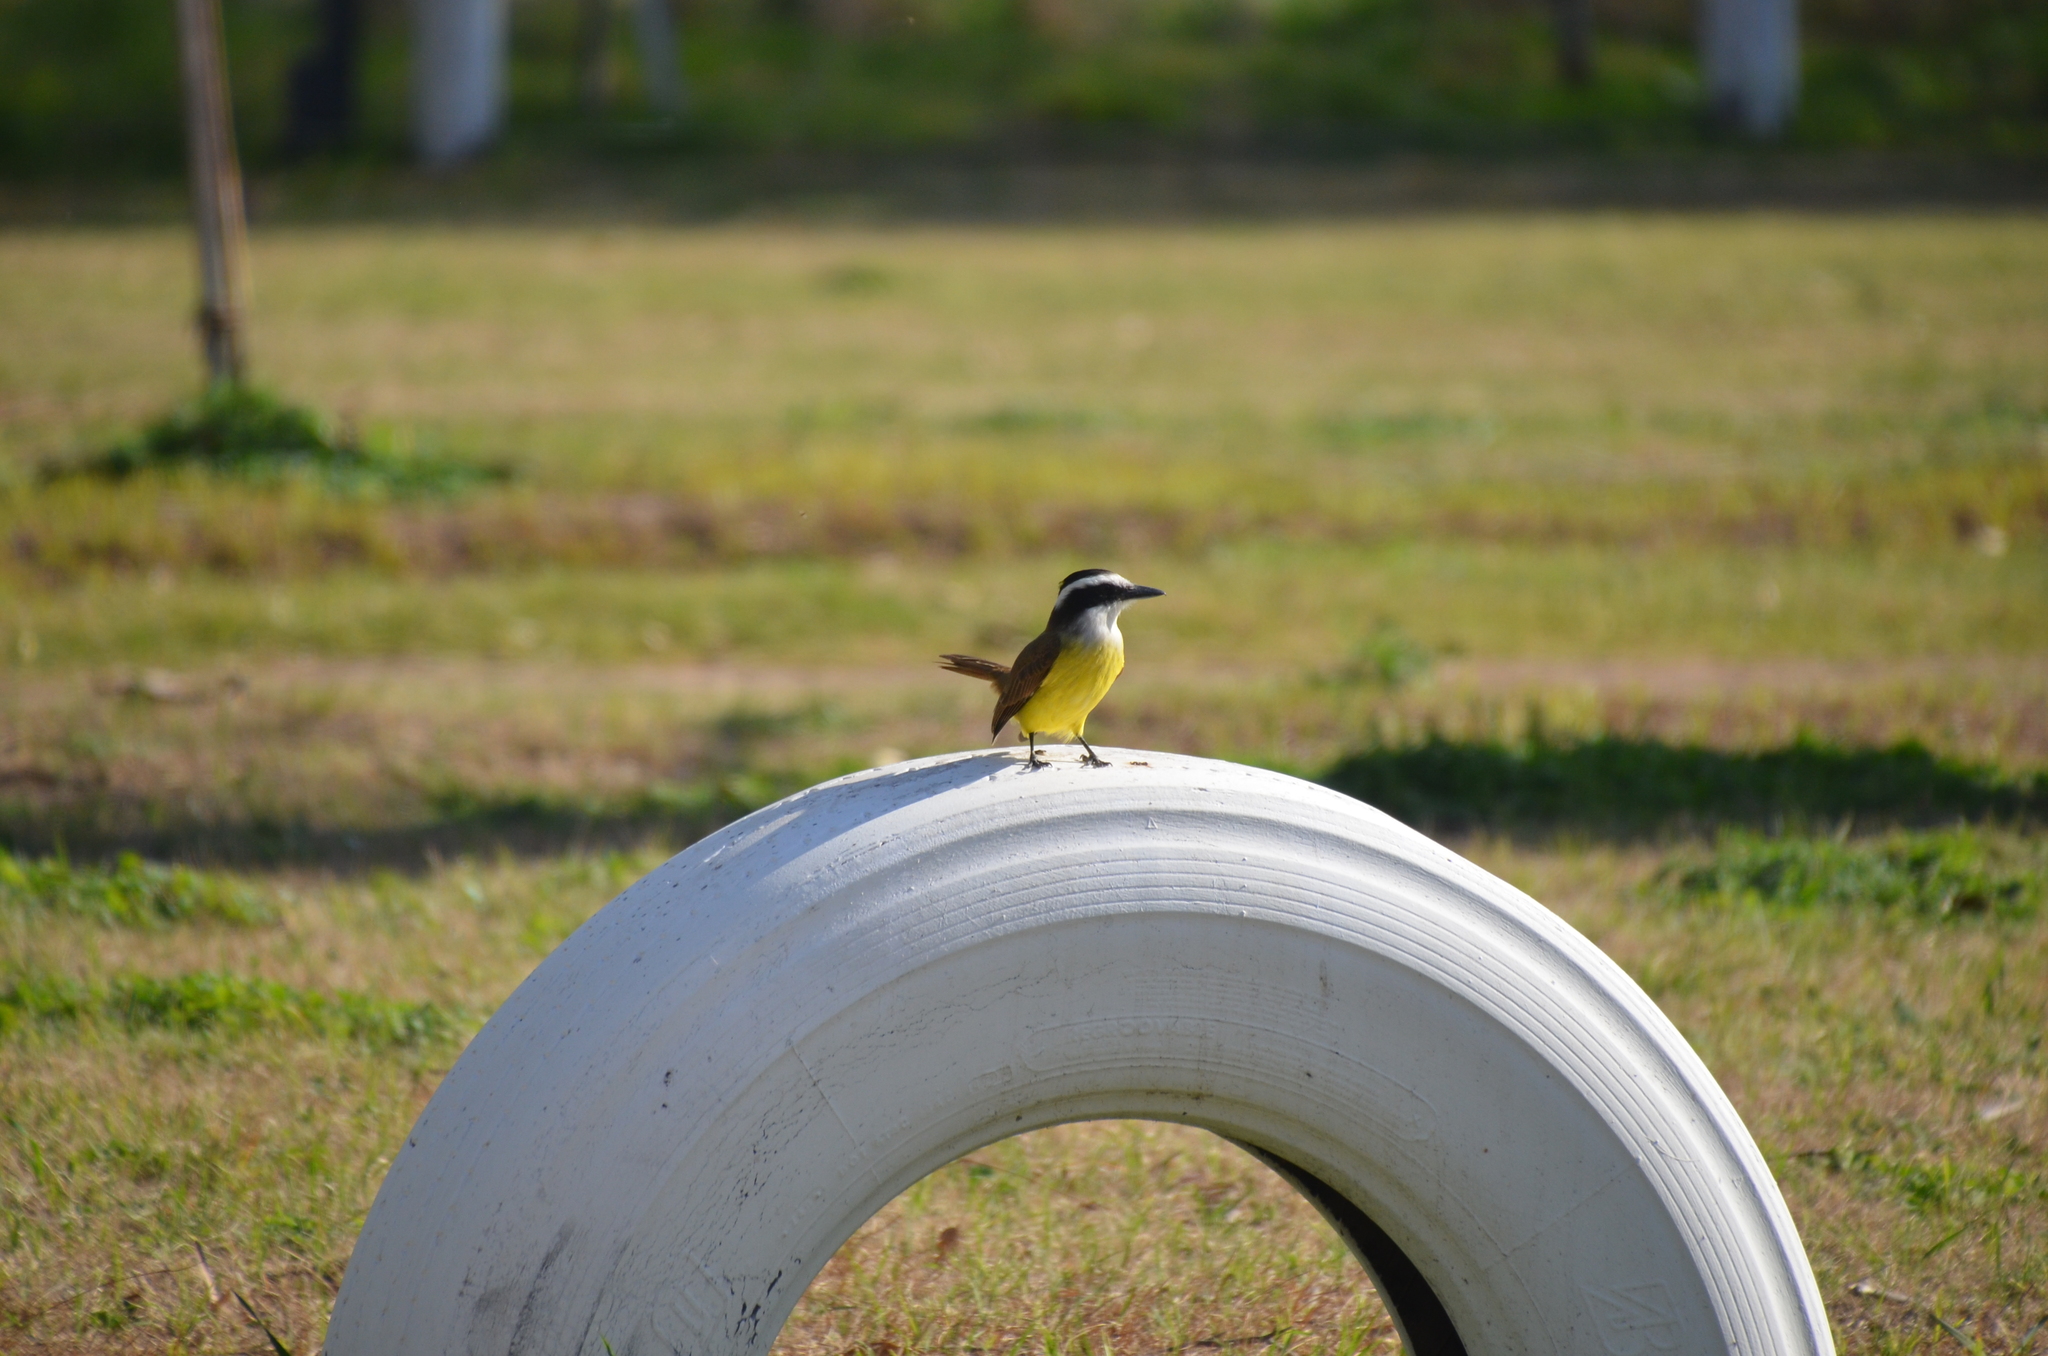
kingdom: Animalia
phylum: Chordata
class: Aves
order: Passeriformes
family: Tyrannidae
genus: Pitangus
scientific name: Pitangus sulphuratus
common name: Great kiskadee
